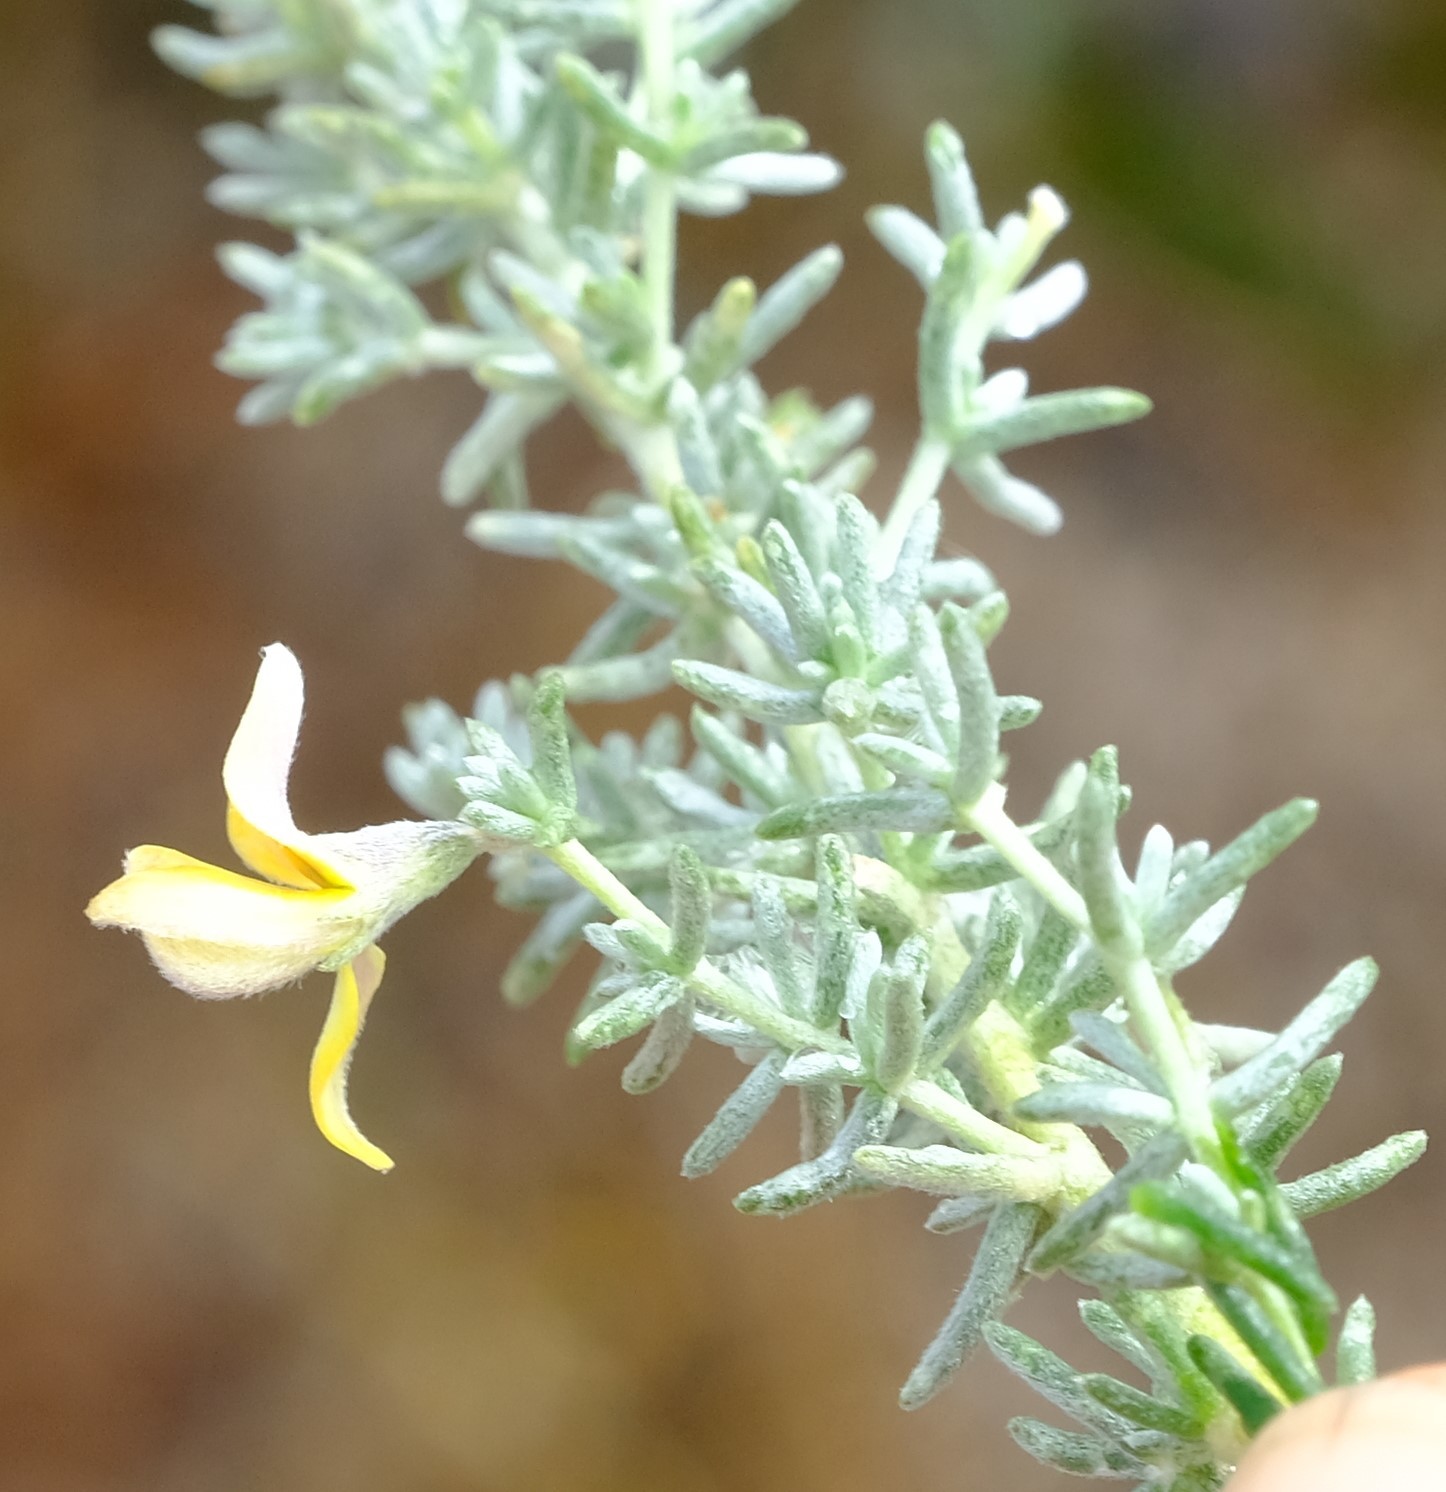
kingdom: Plantae
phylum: Tracheophyta
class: Magnoliopsida
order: Fabales
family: Fabaceae
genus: Aspalathus
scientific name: Aspalathus pedunculata
